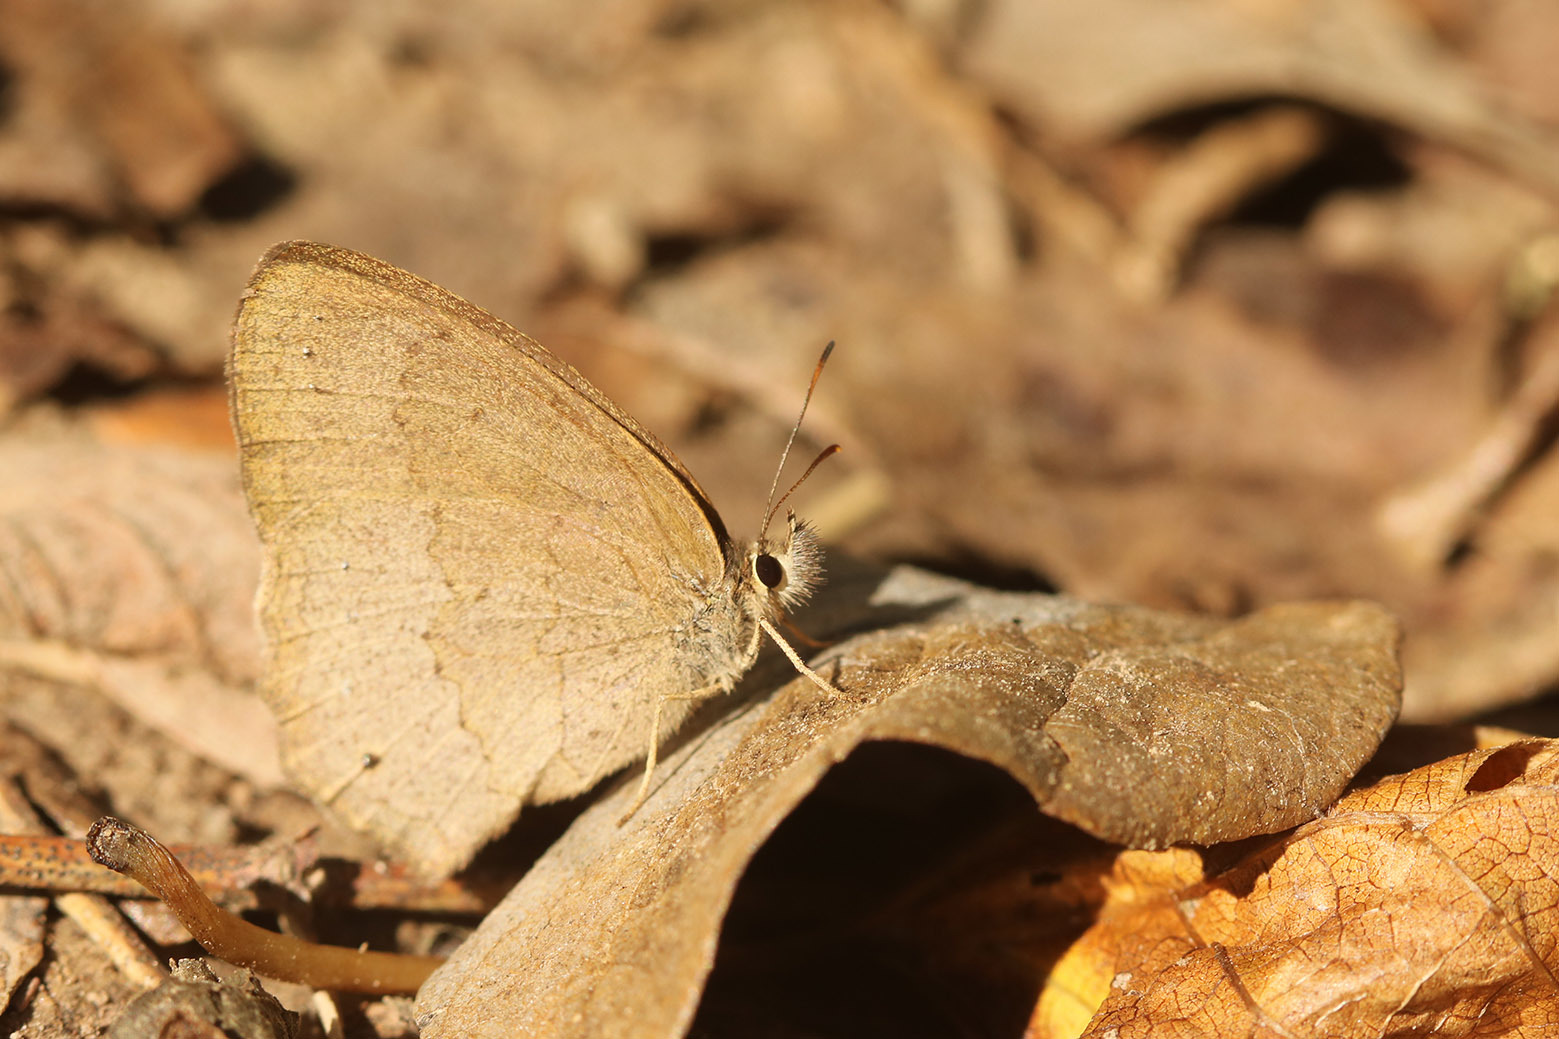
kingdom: Animalia
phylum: Arthropoda
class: Insecta
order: Lepidoptera
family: Nymphalidae
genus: Euptychia
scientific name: Euptychia
